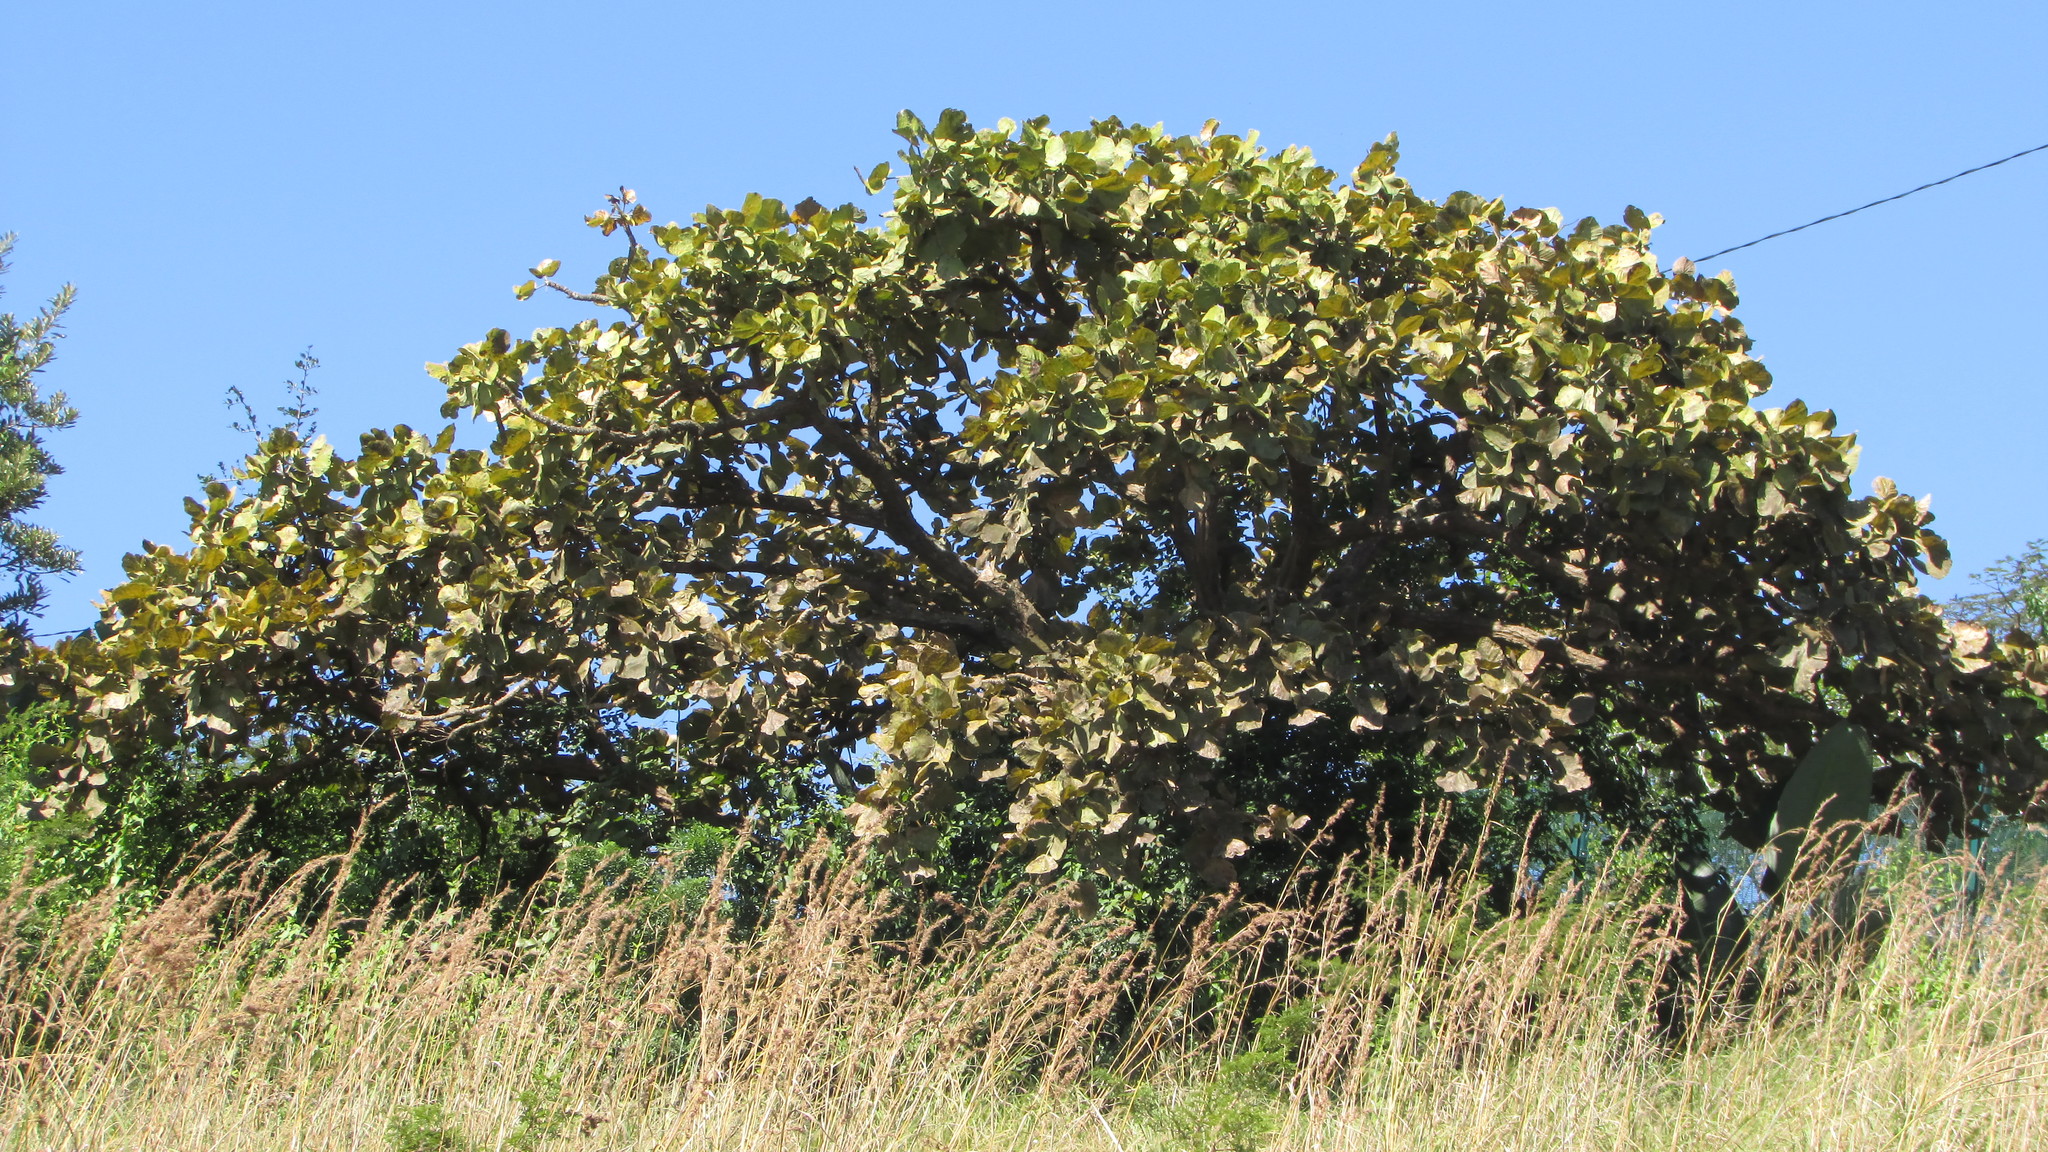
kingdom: Plantae
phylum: Tracheophyta
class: Magnoliopsida
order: Fabales
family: Fabaceae
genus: Erythrina
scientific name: Erythrina latissima
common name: Broad-leaved coral tree
